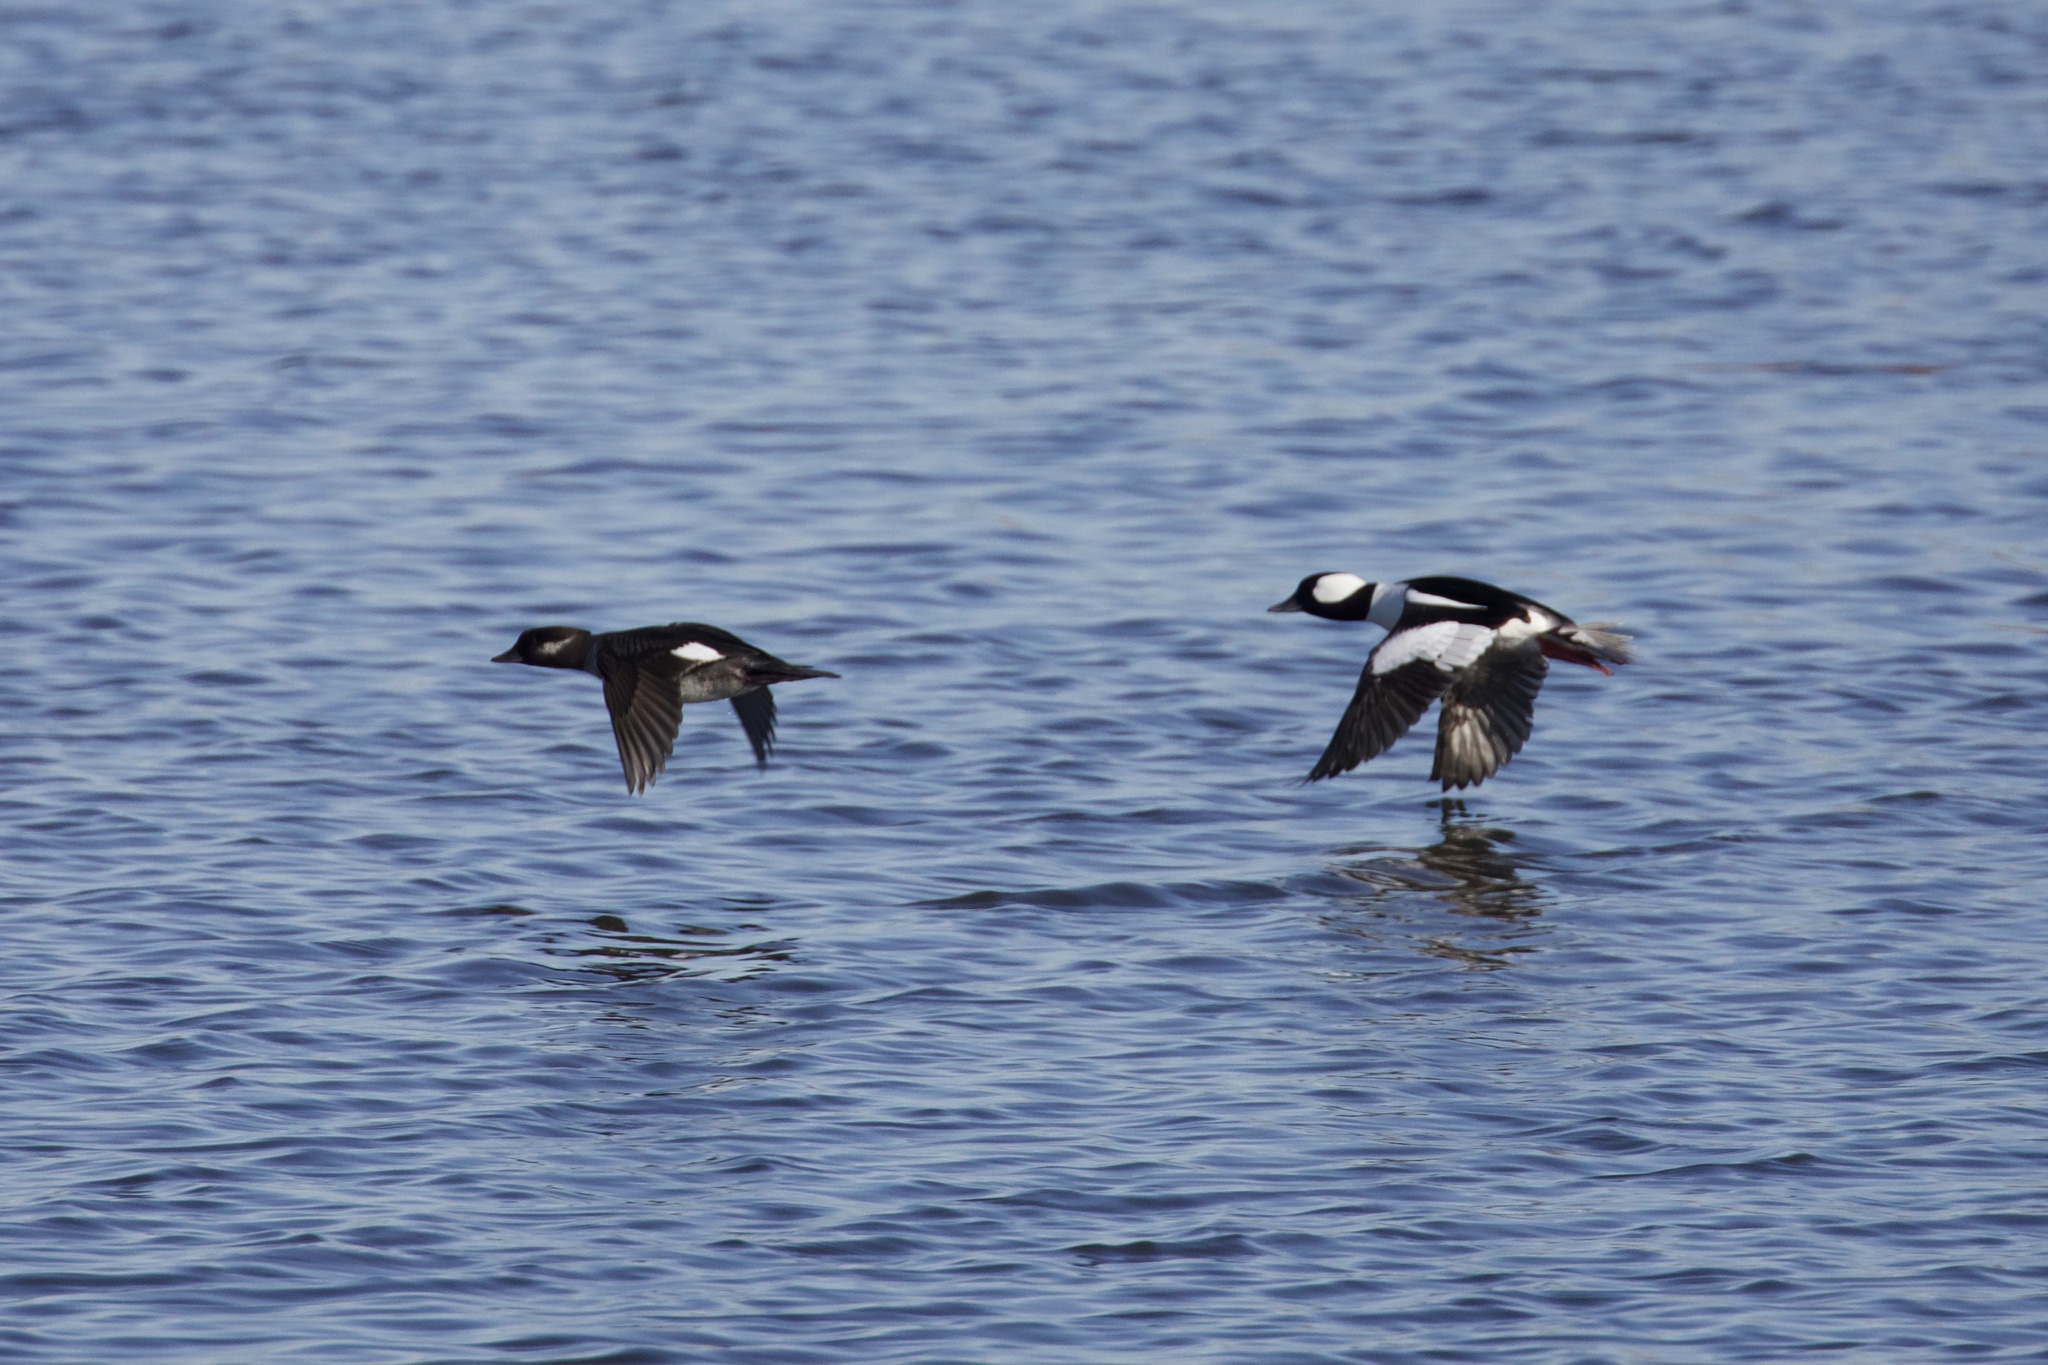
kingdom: Animalia
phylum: Chordata
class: Aves
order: Anseriformes
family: Anatidae
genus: Bucephala
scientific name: Bucephala albeola
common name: Bufflehead
